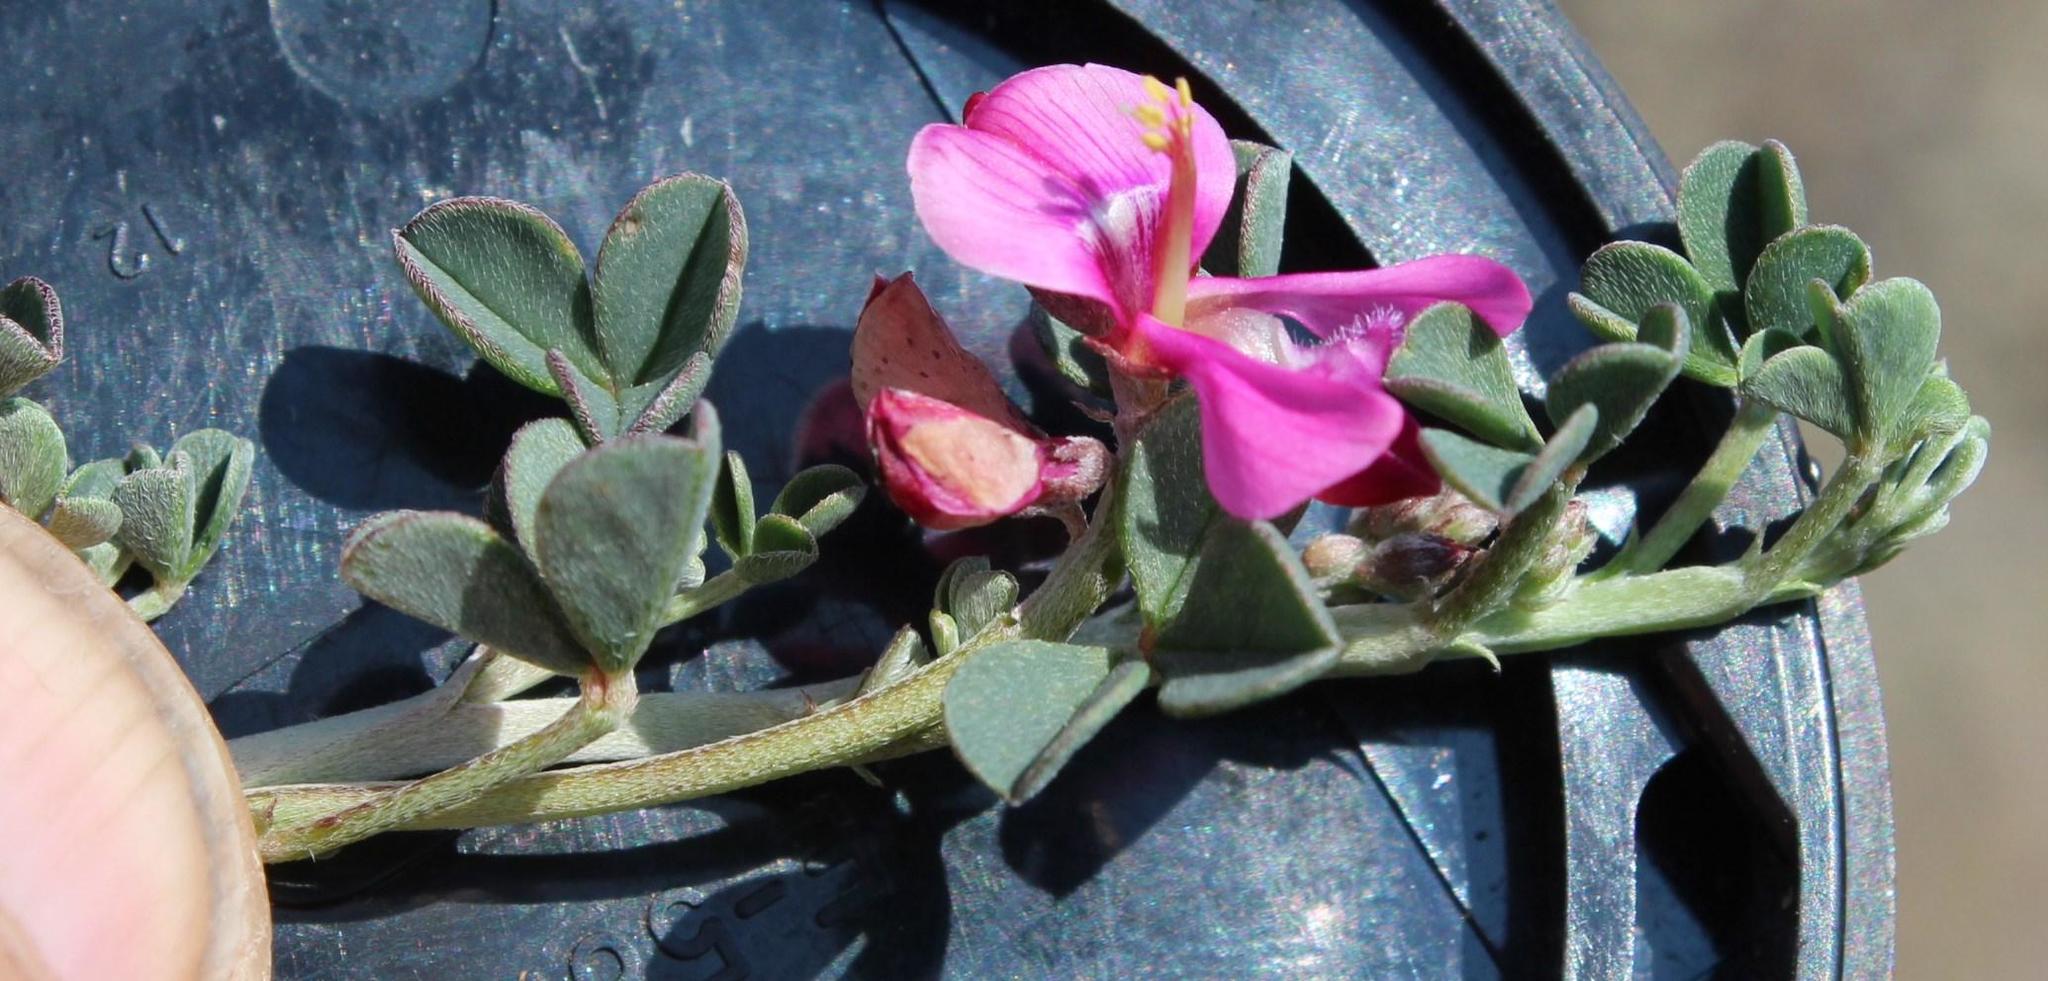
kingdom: Plantae
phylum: Tracheophyta
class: Magnoliopsida
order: Fabales
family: Fabaceae
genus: Indigofera
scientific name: Indigofera hantamensis
